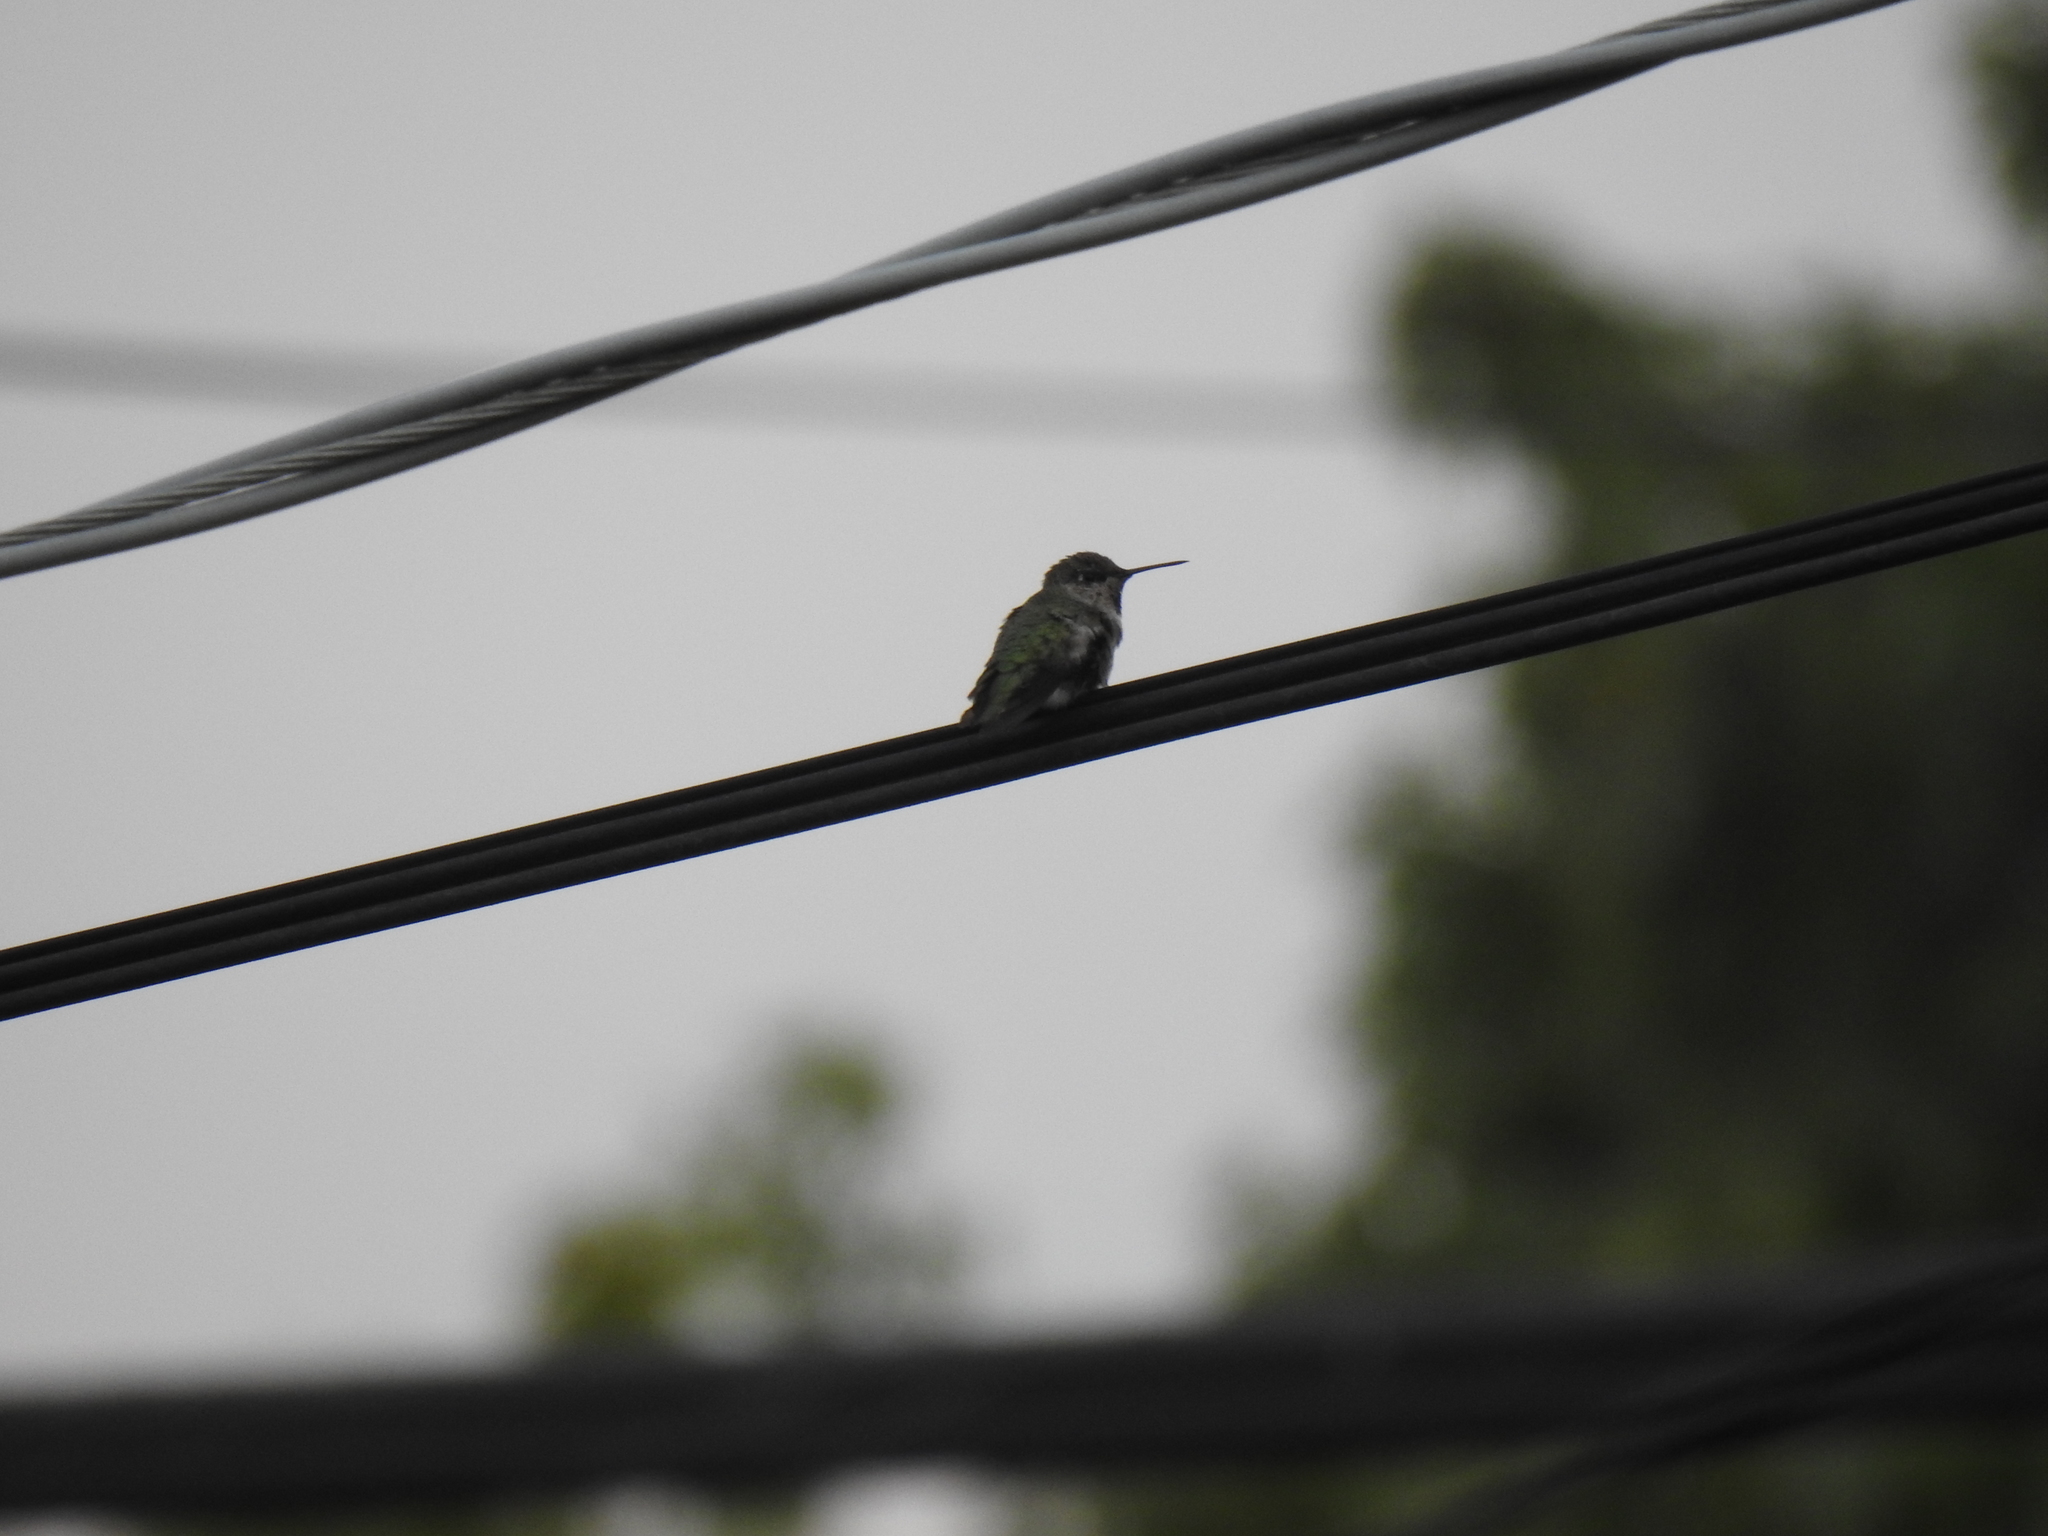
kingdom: Animalia
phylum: Chordata
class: Aves
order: Apodiformes
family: Trochilidae
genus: Calypte
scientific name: Calypte anna
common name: Anna's hummingbird
